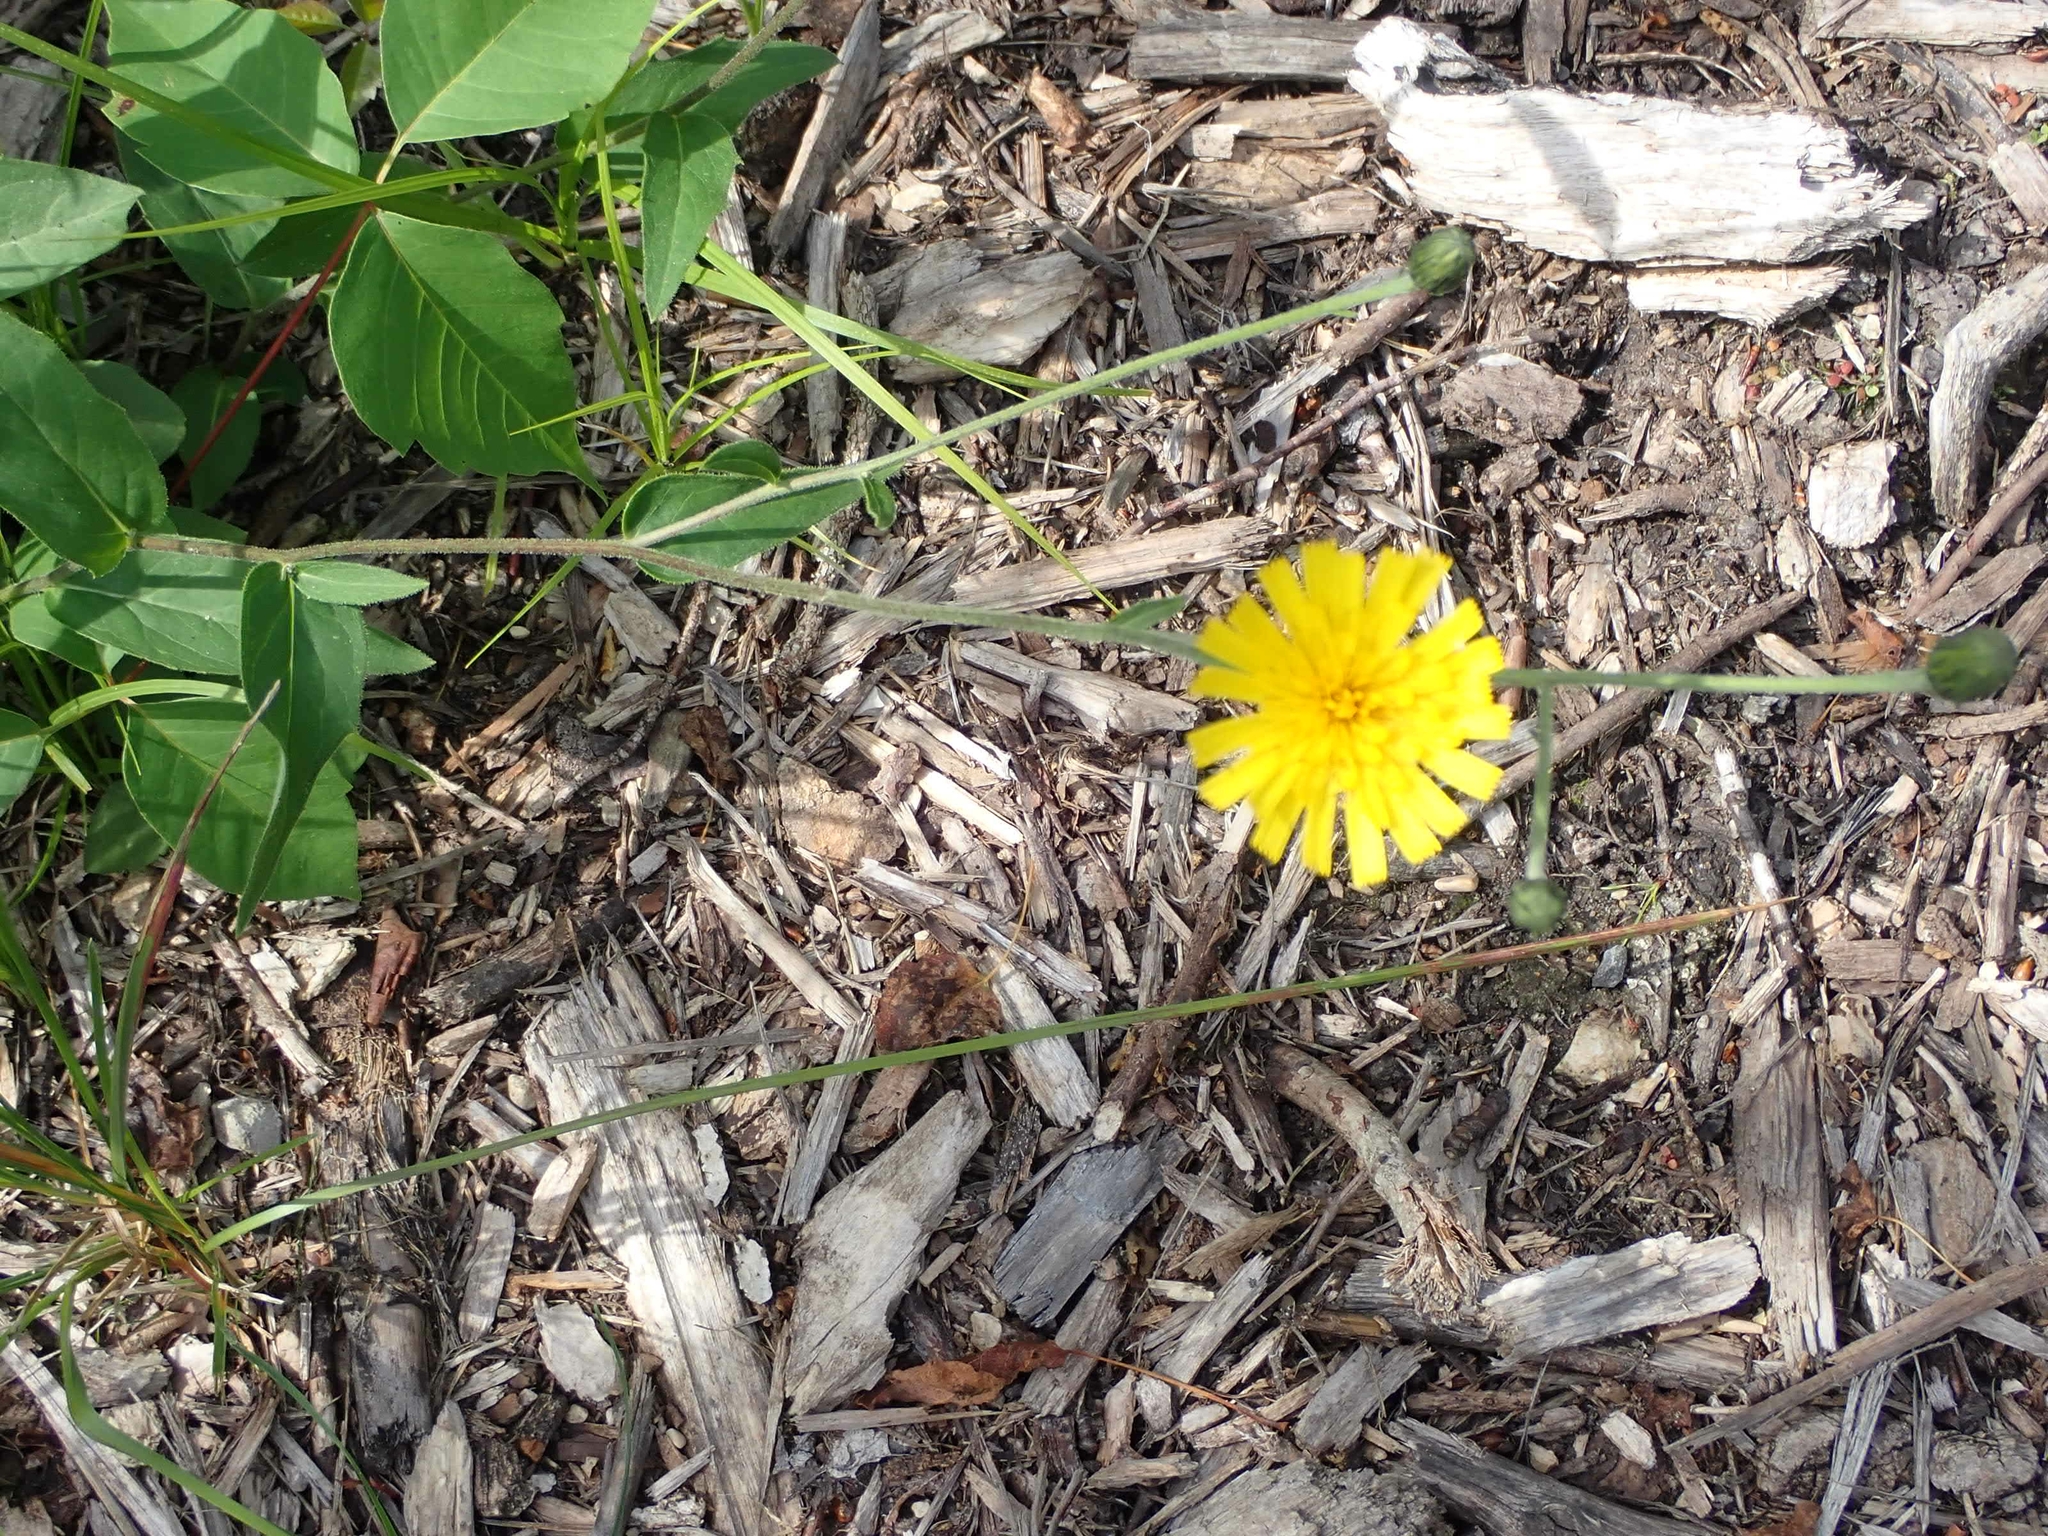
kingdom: Plantae
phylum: Tracheophyta
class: Magnoliopsida
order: Asterales
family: Asteraceae
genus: Hieracium
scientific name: Hieracium umbellatum
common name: Northern hawkweed
